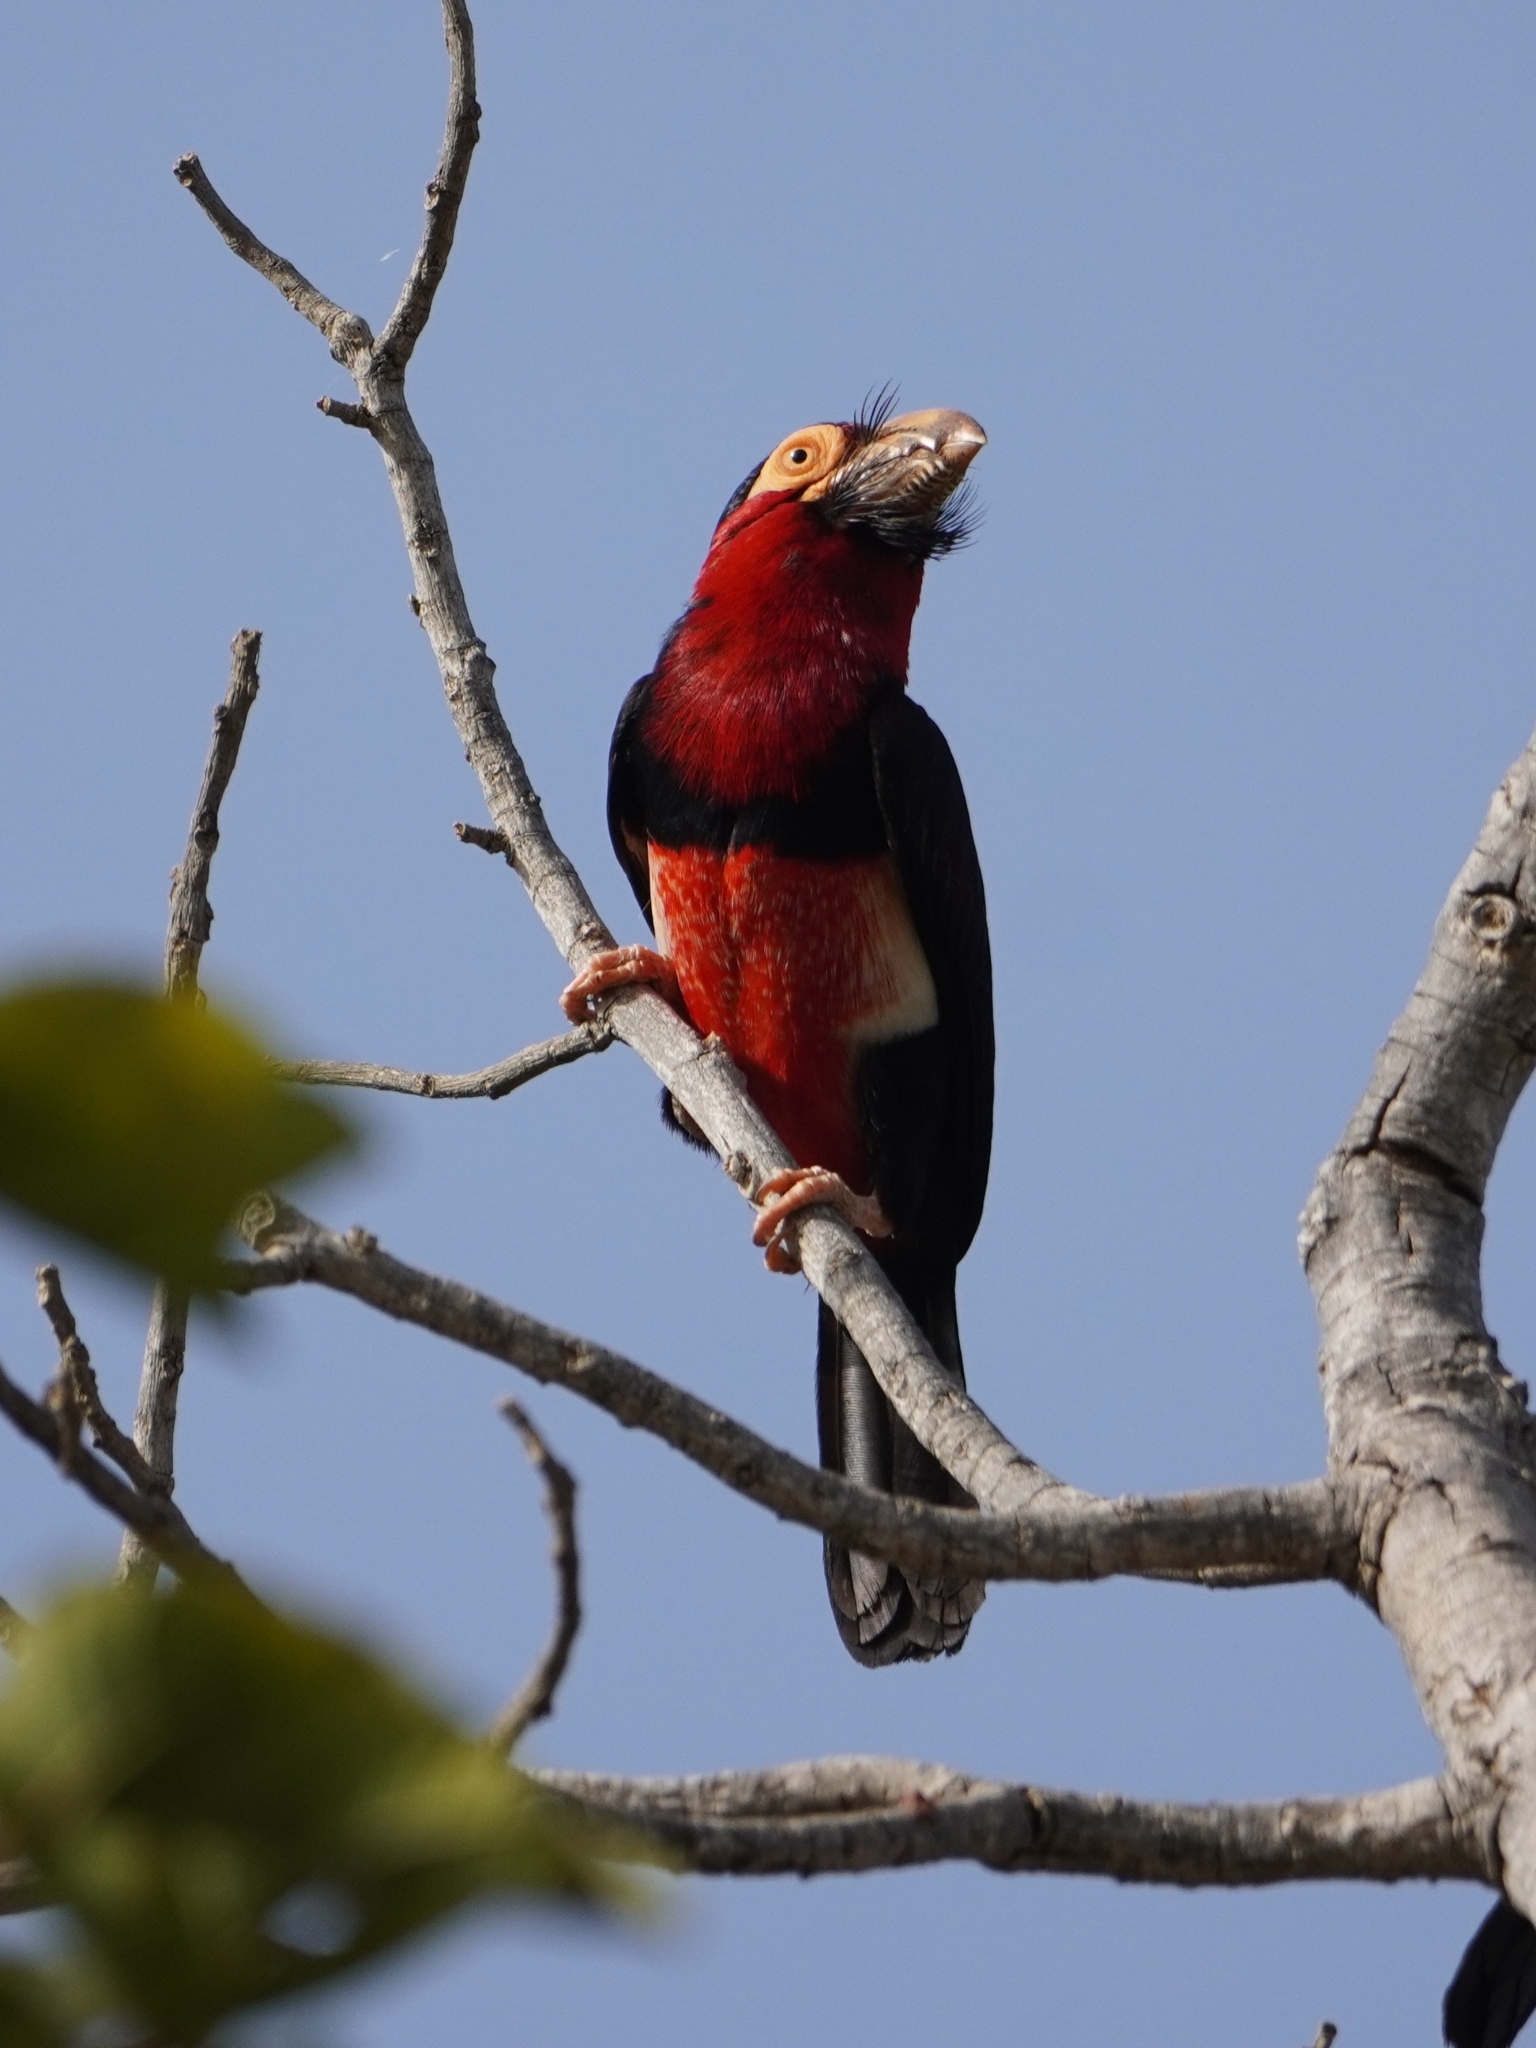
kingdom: Animalia
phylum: Chordata
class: Aves
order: Piciformes
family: Lybiidae
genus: Lybius
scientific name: Lybius dubius
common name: Bearded barbet
